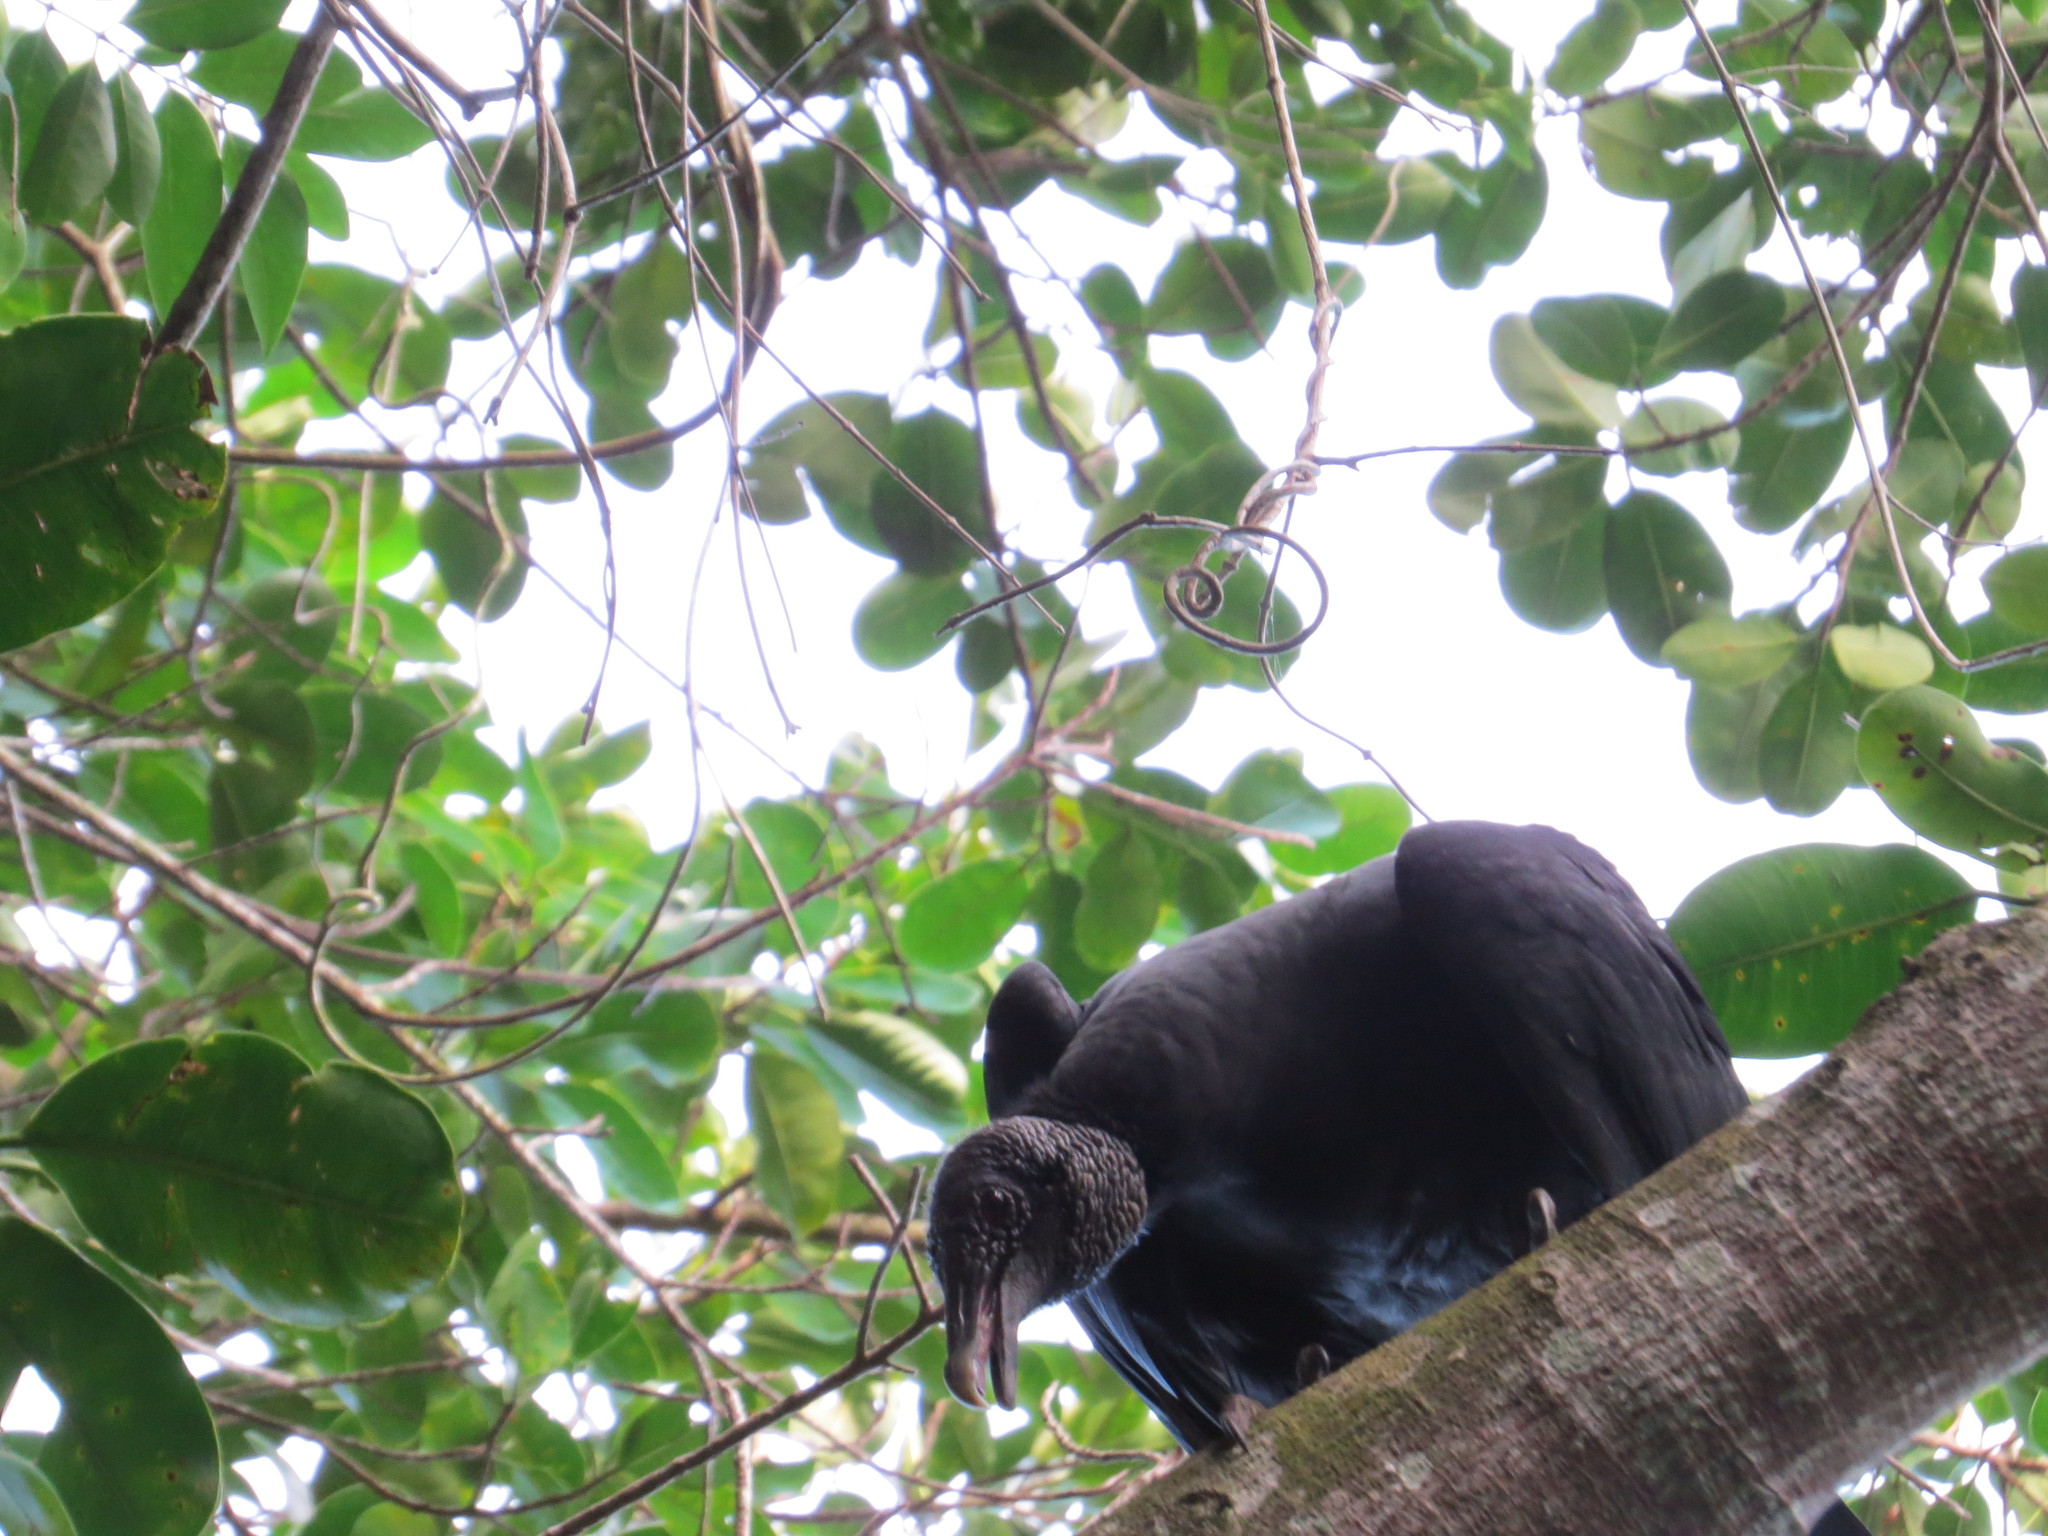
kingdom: Animalia
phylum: Chordata
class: Aves
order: Accipitriformes
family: Cathartidae
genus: Coragyps
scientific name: Coragyps atratus
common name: Black vulture
